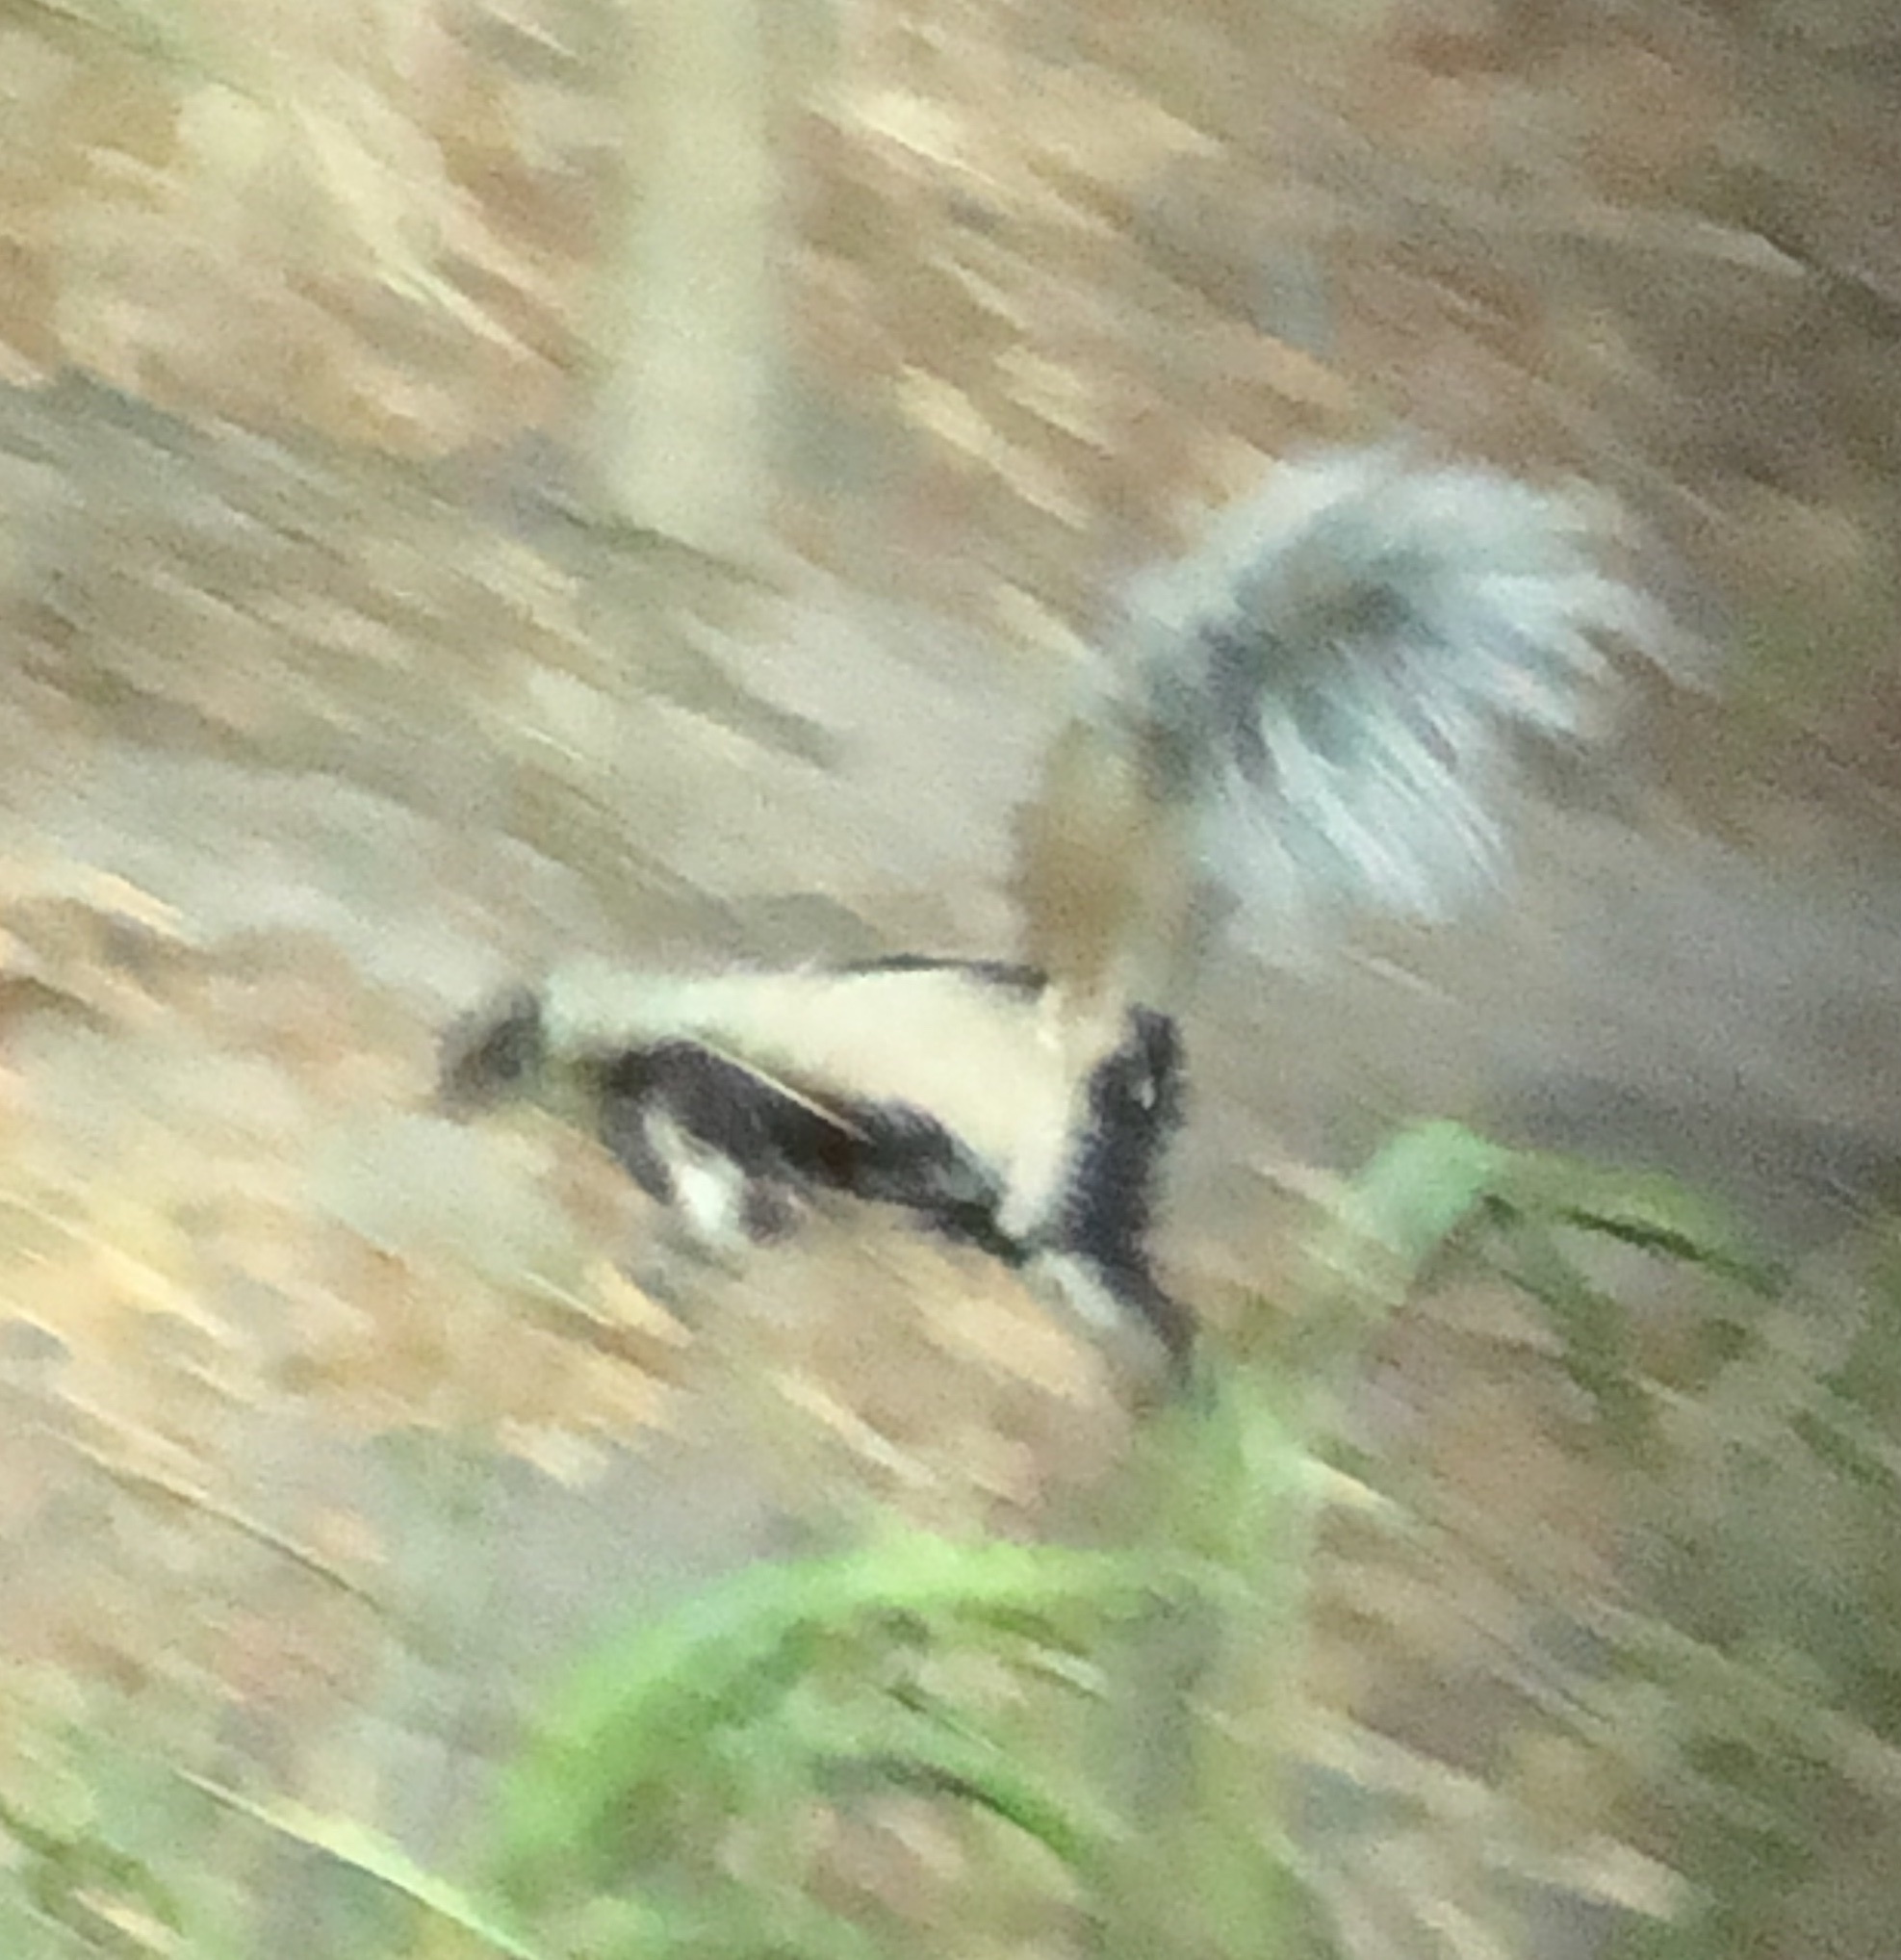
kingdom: Animalia
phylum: Chordata
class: Mammalia
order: Carnivora
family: Mephitidae
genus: Mephitis
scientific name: Mephitis mephitis
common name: Striped skunk
